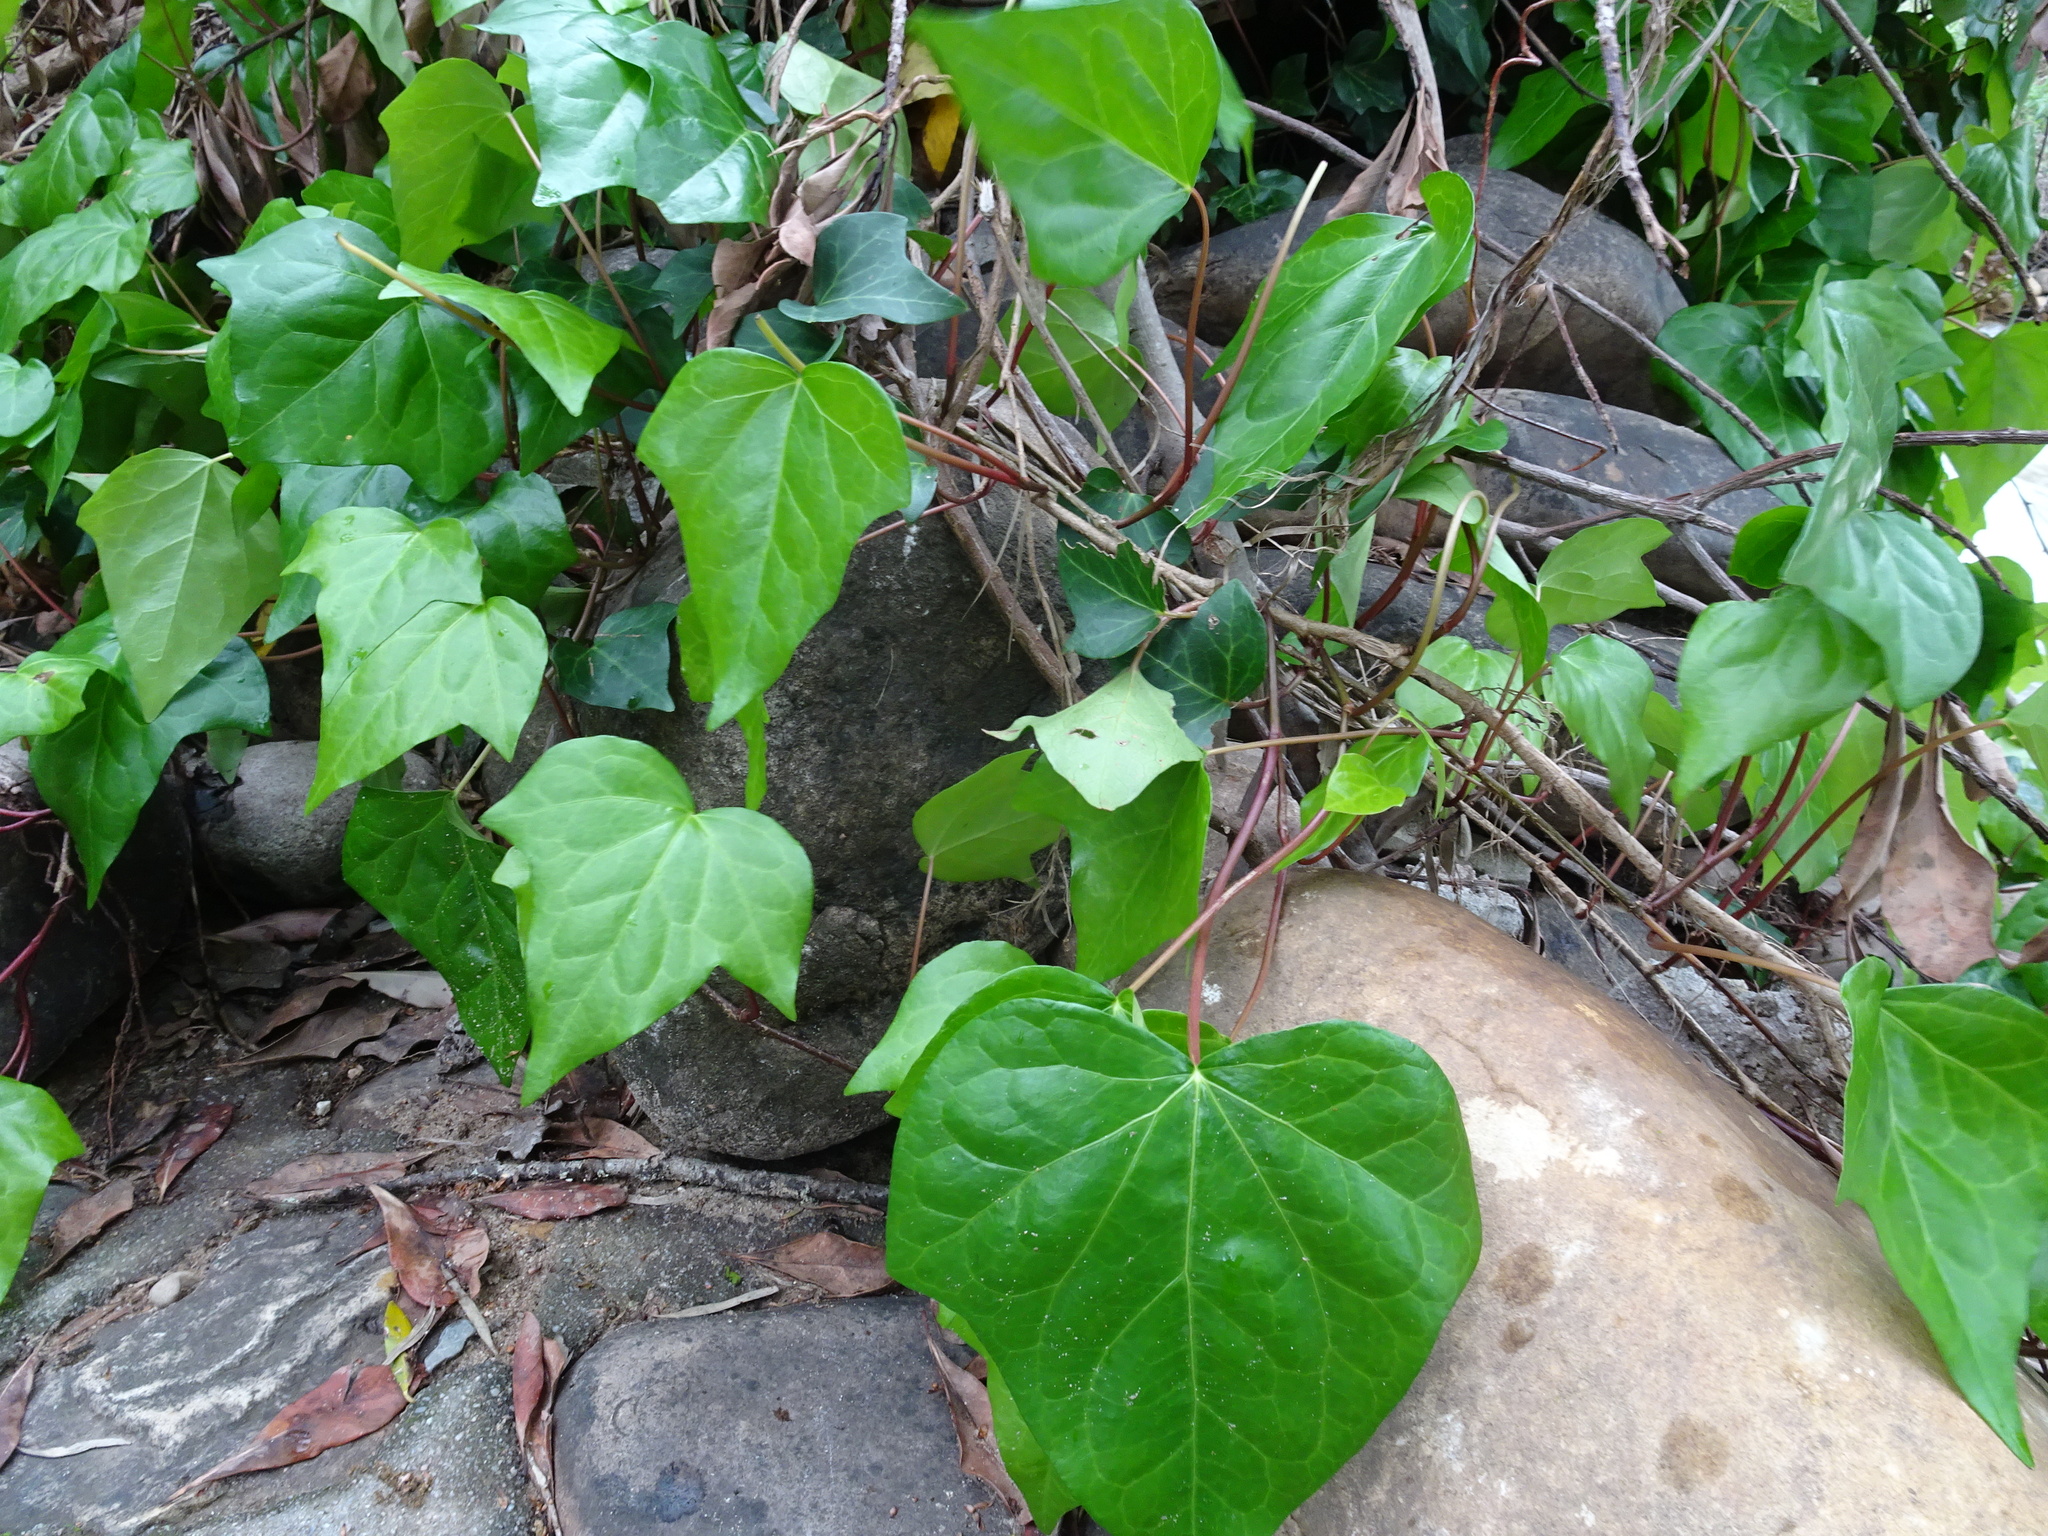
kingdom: Plantae
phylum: Tracheophyta
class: Magnoliopsida
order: Apiales
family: Araliaceae
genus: Hedera
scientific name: Hedera canariensis
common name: Madeira ivy
